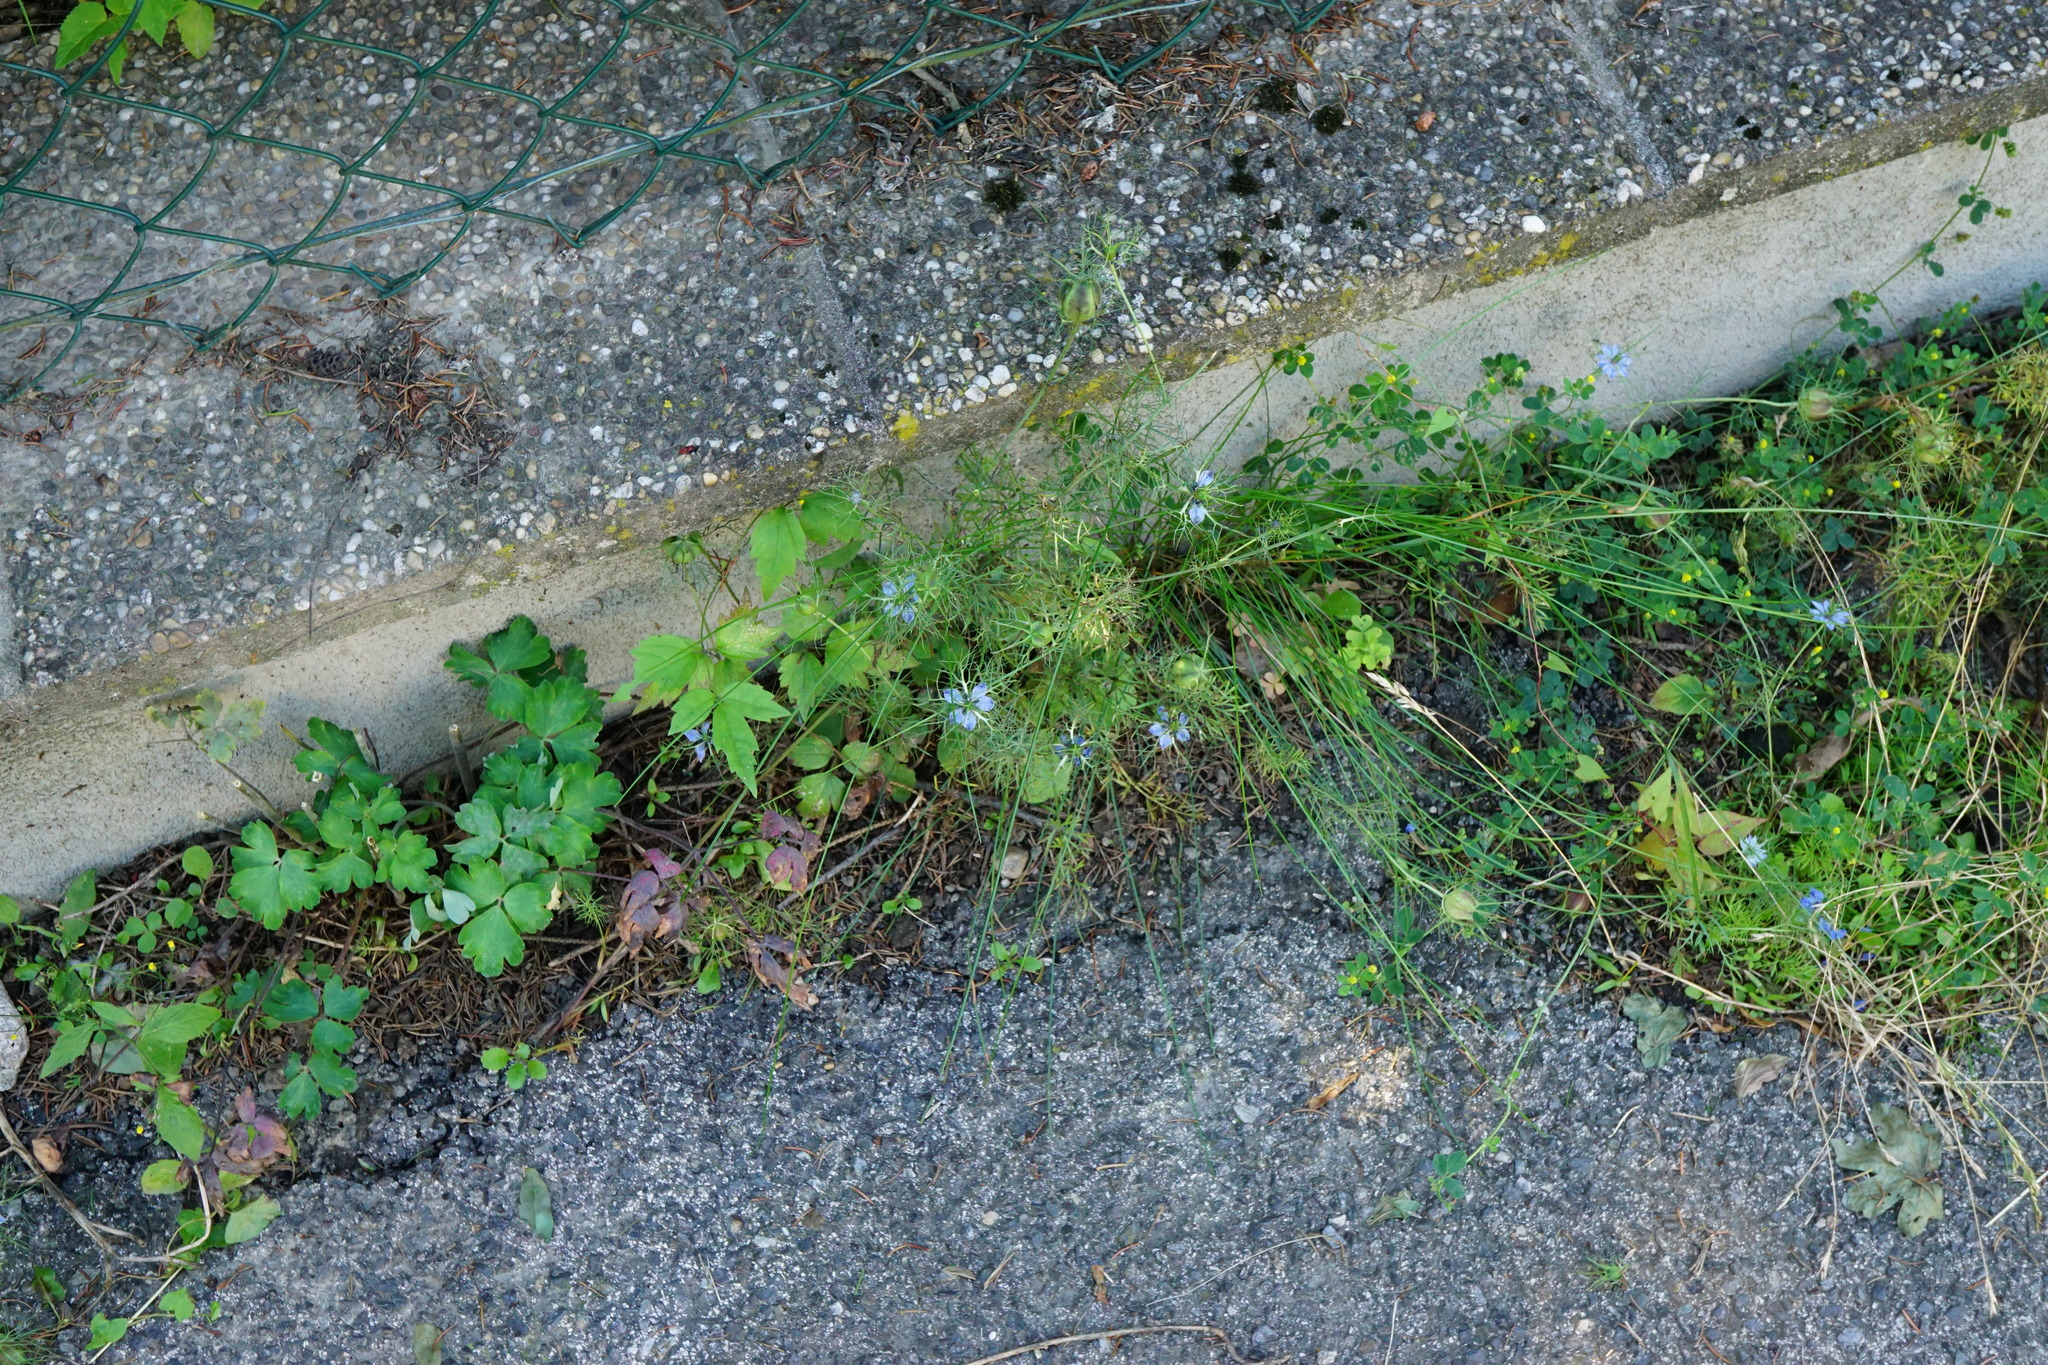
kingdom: Plantae
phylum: Tracheophyta
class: Magnoliopsida
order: Ranunculales
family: Ranunculaceae
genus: Nigella
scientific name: Nigella damascena
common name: Love-in-a-mist
